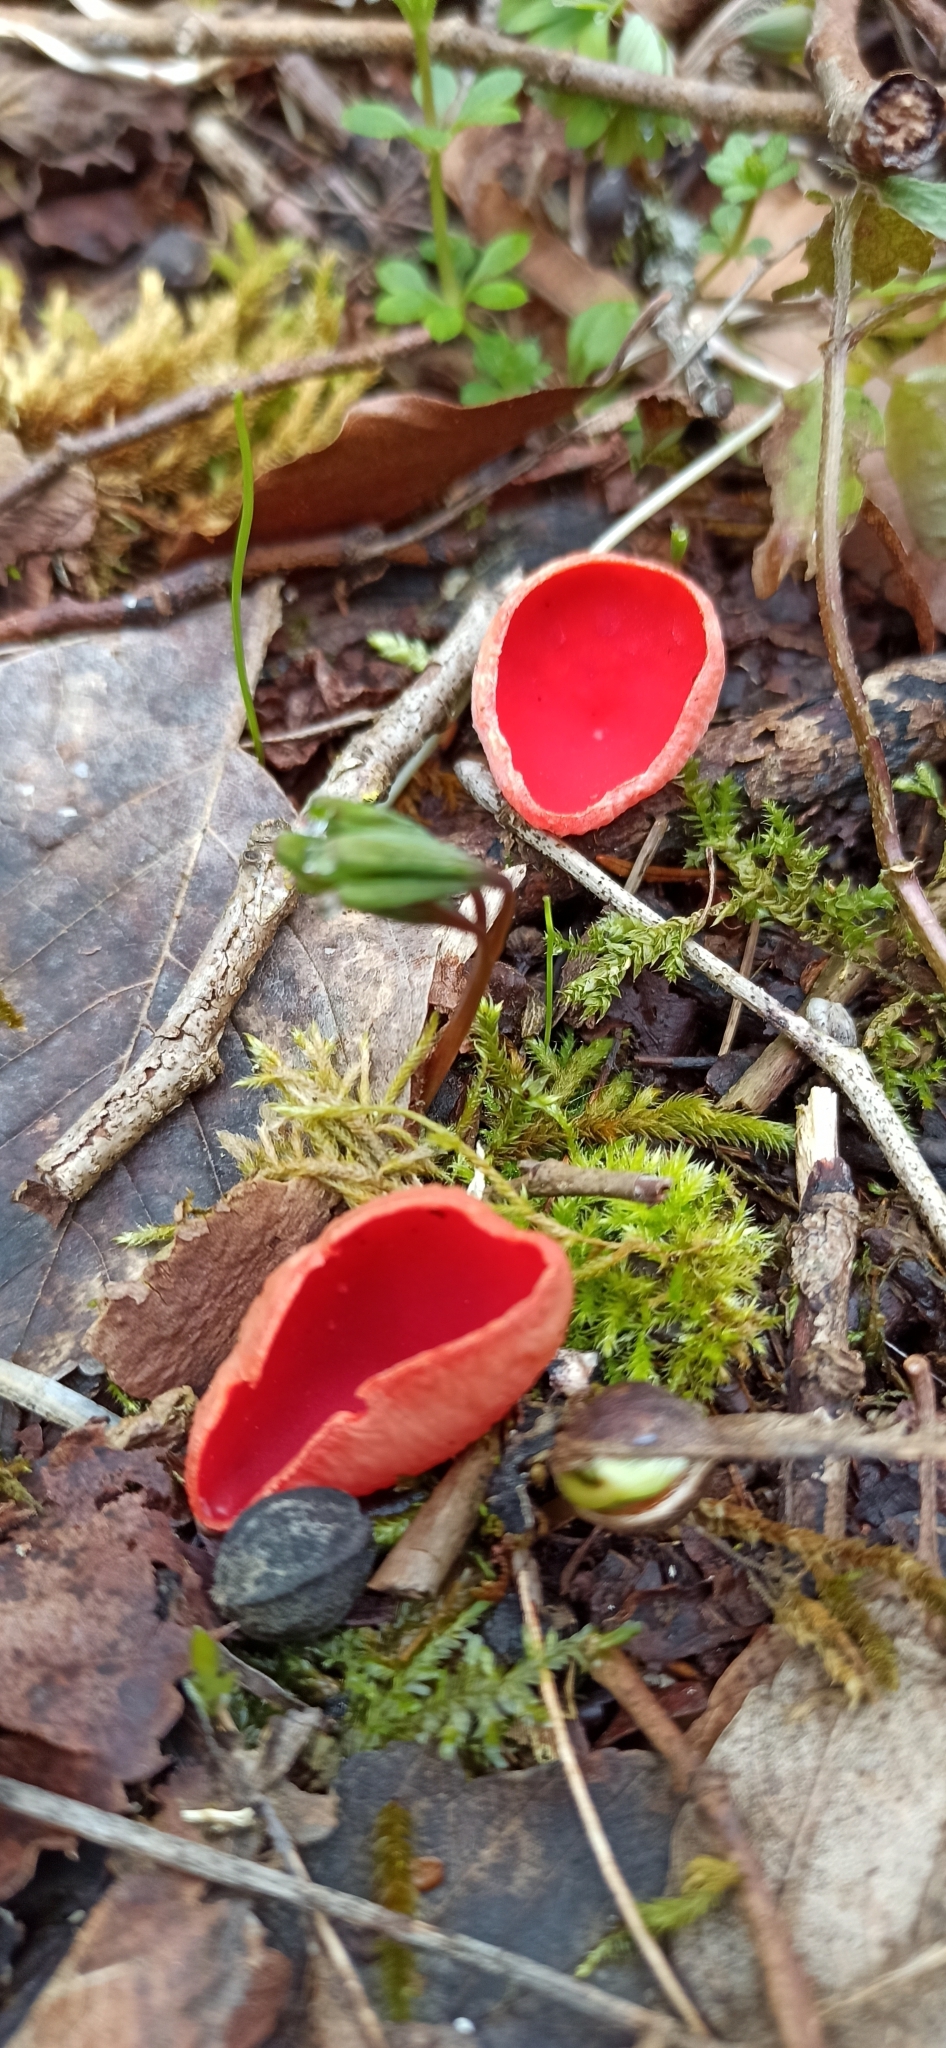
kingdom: Fungi
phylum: Ascomycota
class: Pezizomycetes
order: Pezizales
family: Sarcoscyphaceae
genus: Sarcoscypha
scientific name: Sarcoscypha
